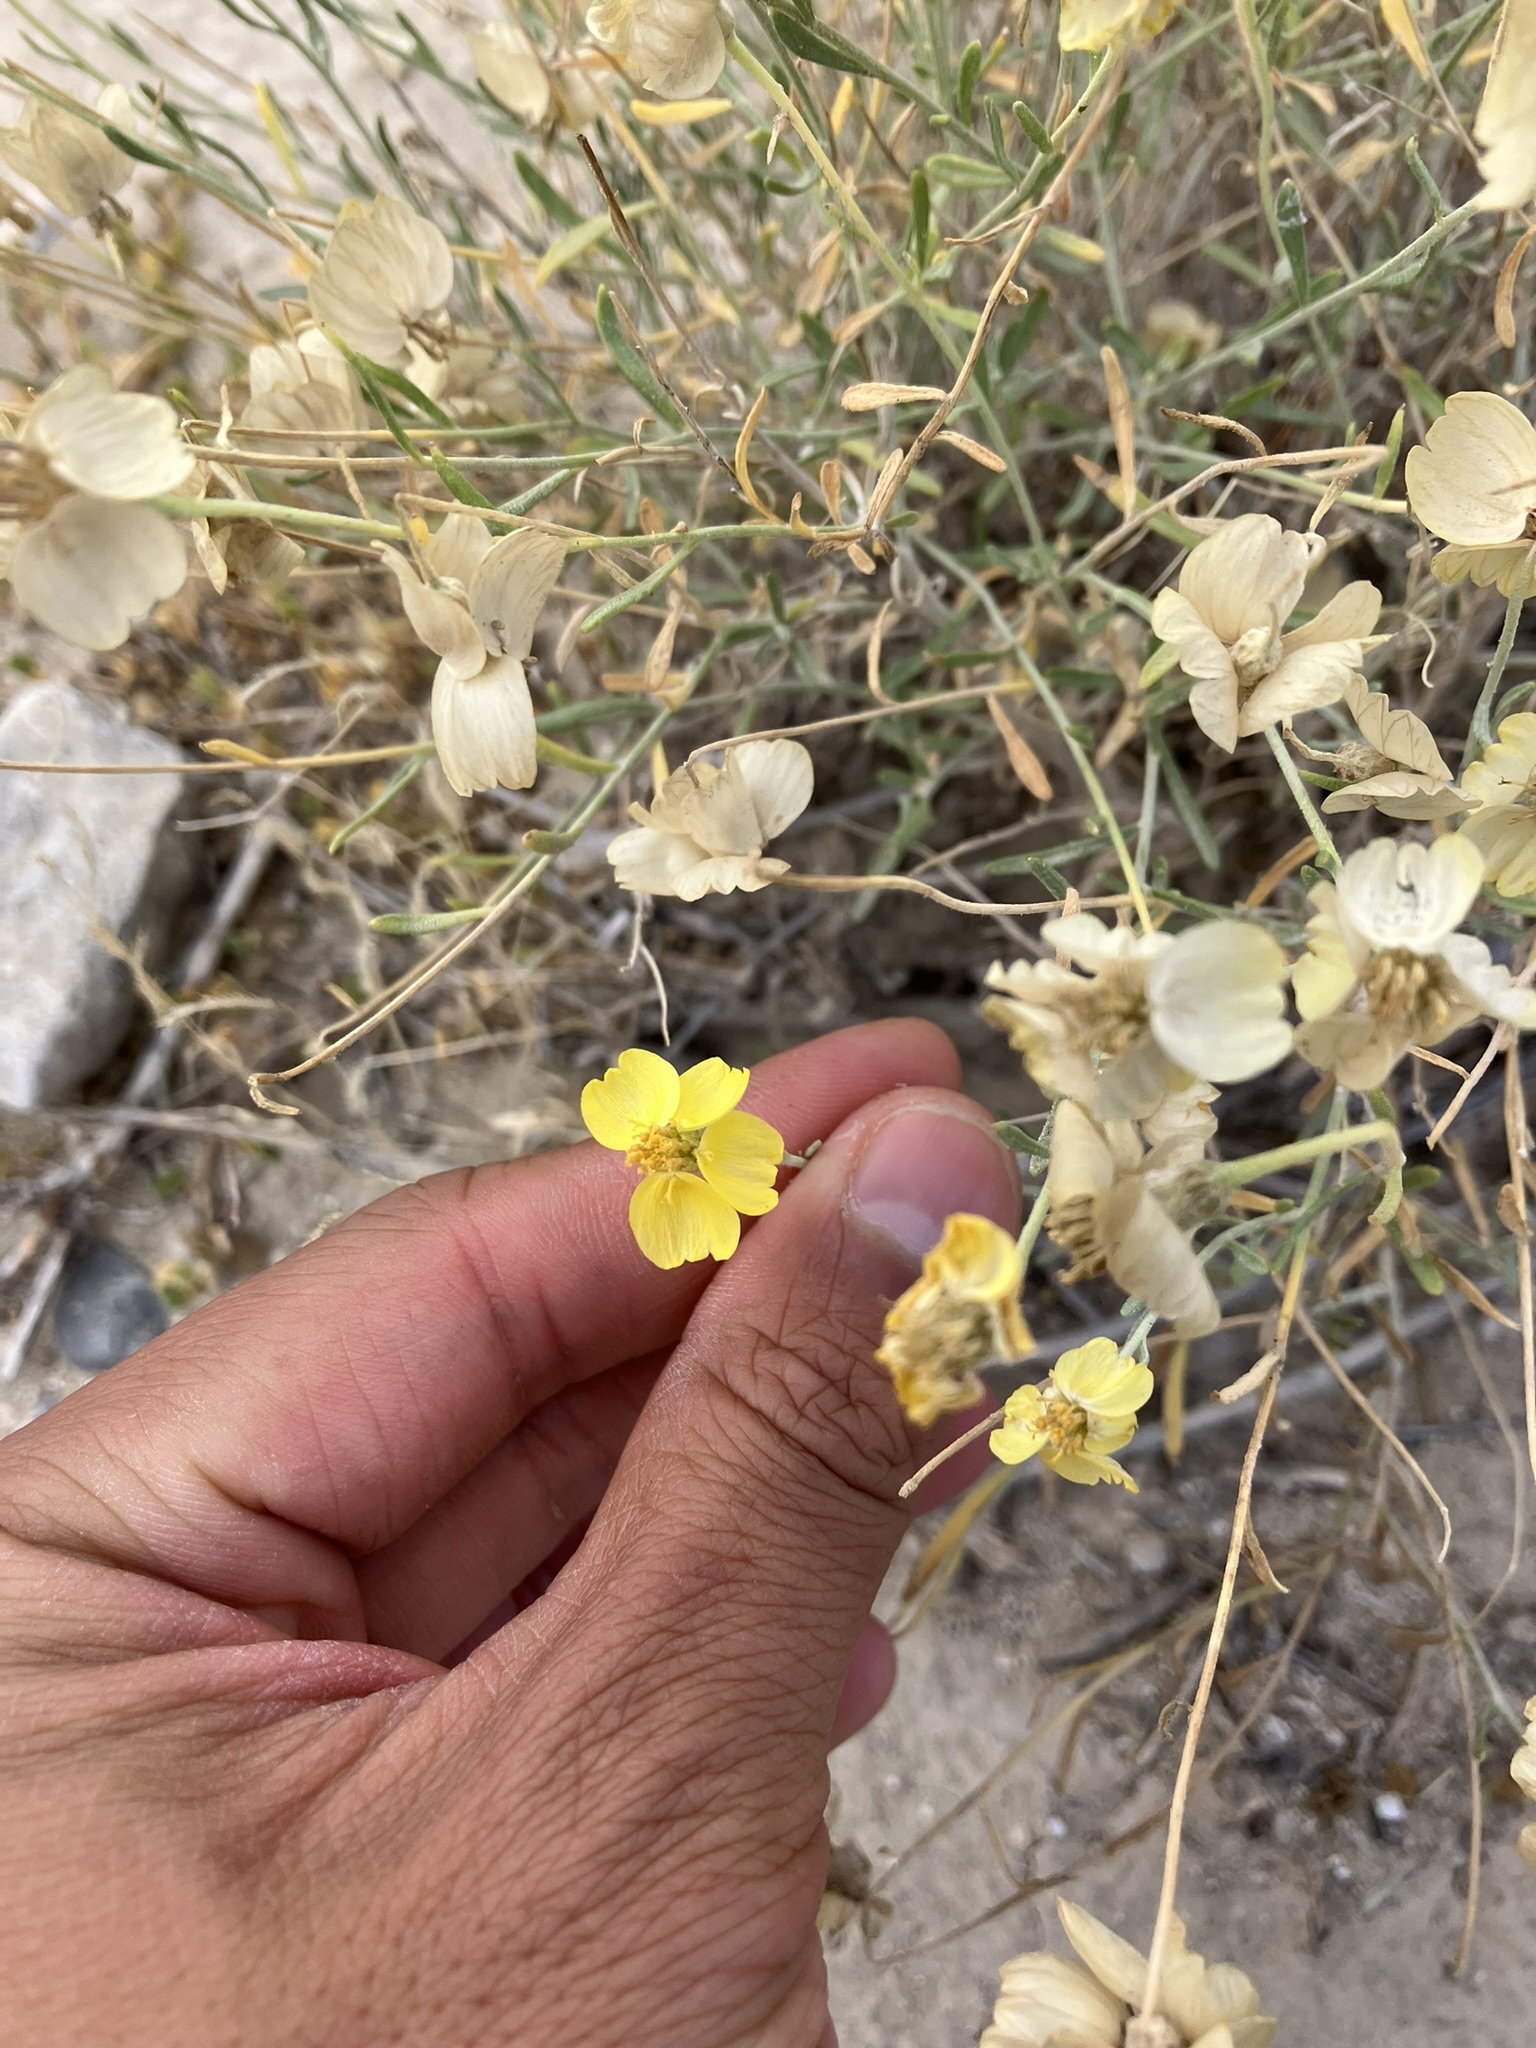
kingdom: Plantae
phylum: Tracheophyta
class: Magnoliopsida
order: Asterales
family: Asteraceae
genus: Psilostrophe
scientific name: Psilostrophe cooperi
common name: White-stem paper-flower
